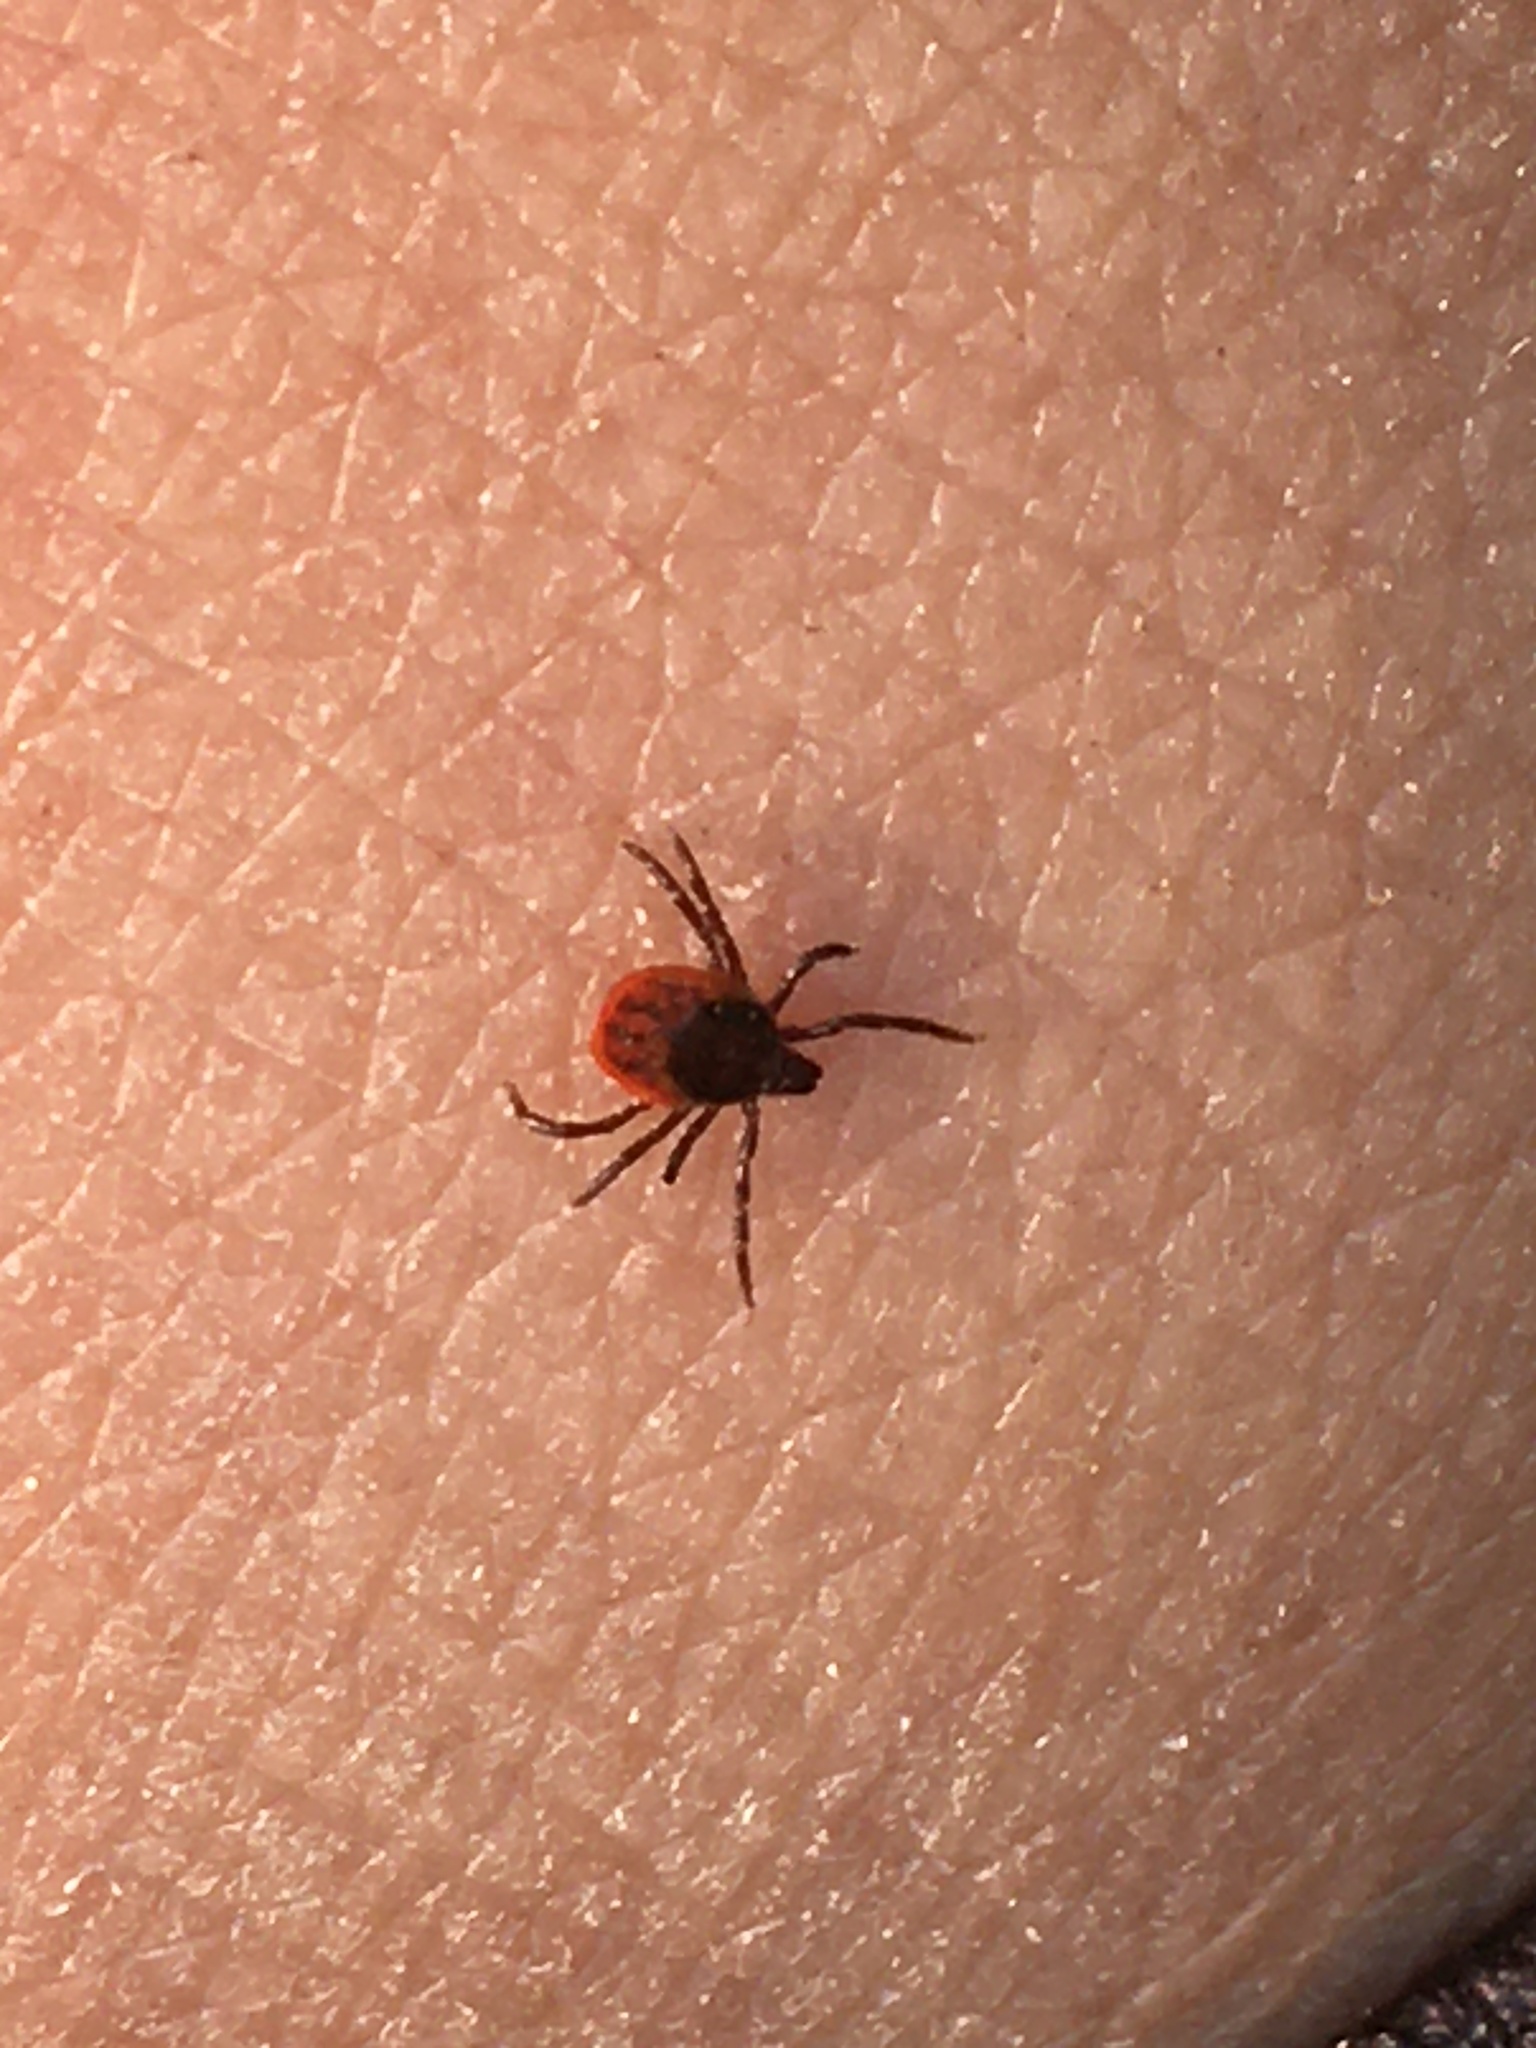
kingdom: Animalia
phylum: Arthropoda
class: Arachnida
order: Ixodida
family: Ixodidae
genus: Ixodes
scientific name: Ixodes ricinus
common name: Castor bean tick
